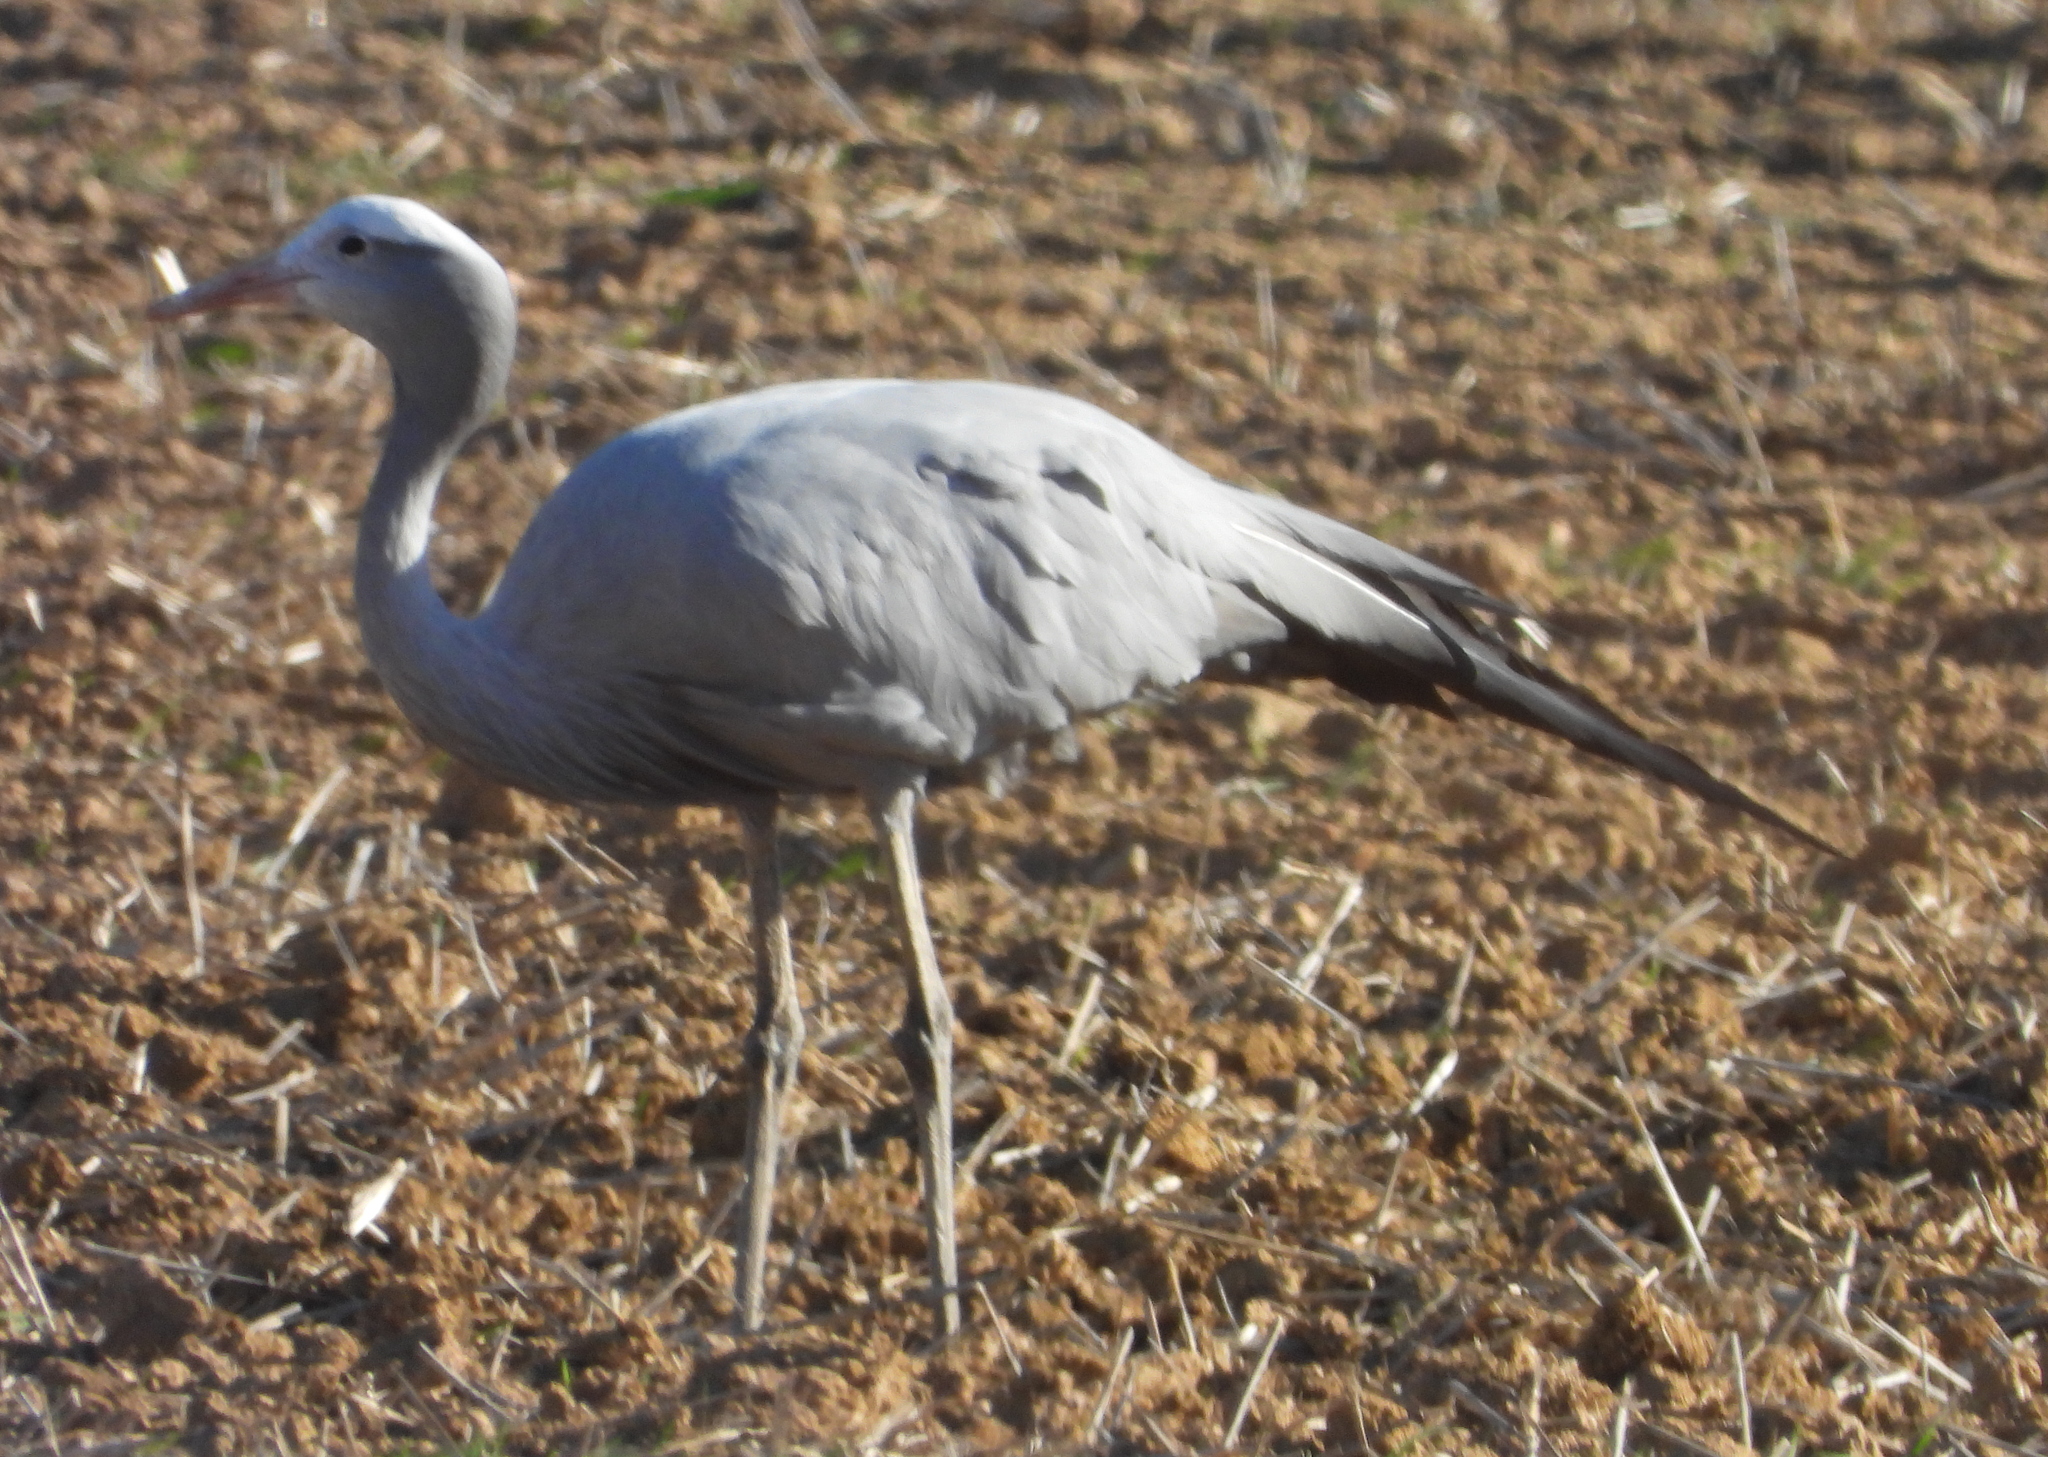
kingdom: Animalia
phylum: Chordata
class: Aves
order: Gruiformes
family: Gruidae
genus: Anthropoides
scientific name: Anthropoides paradiseus
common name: Blue crane
